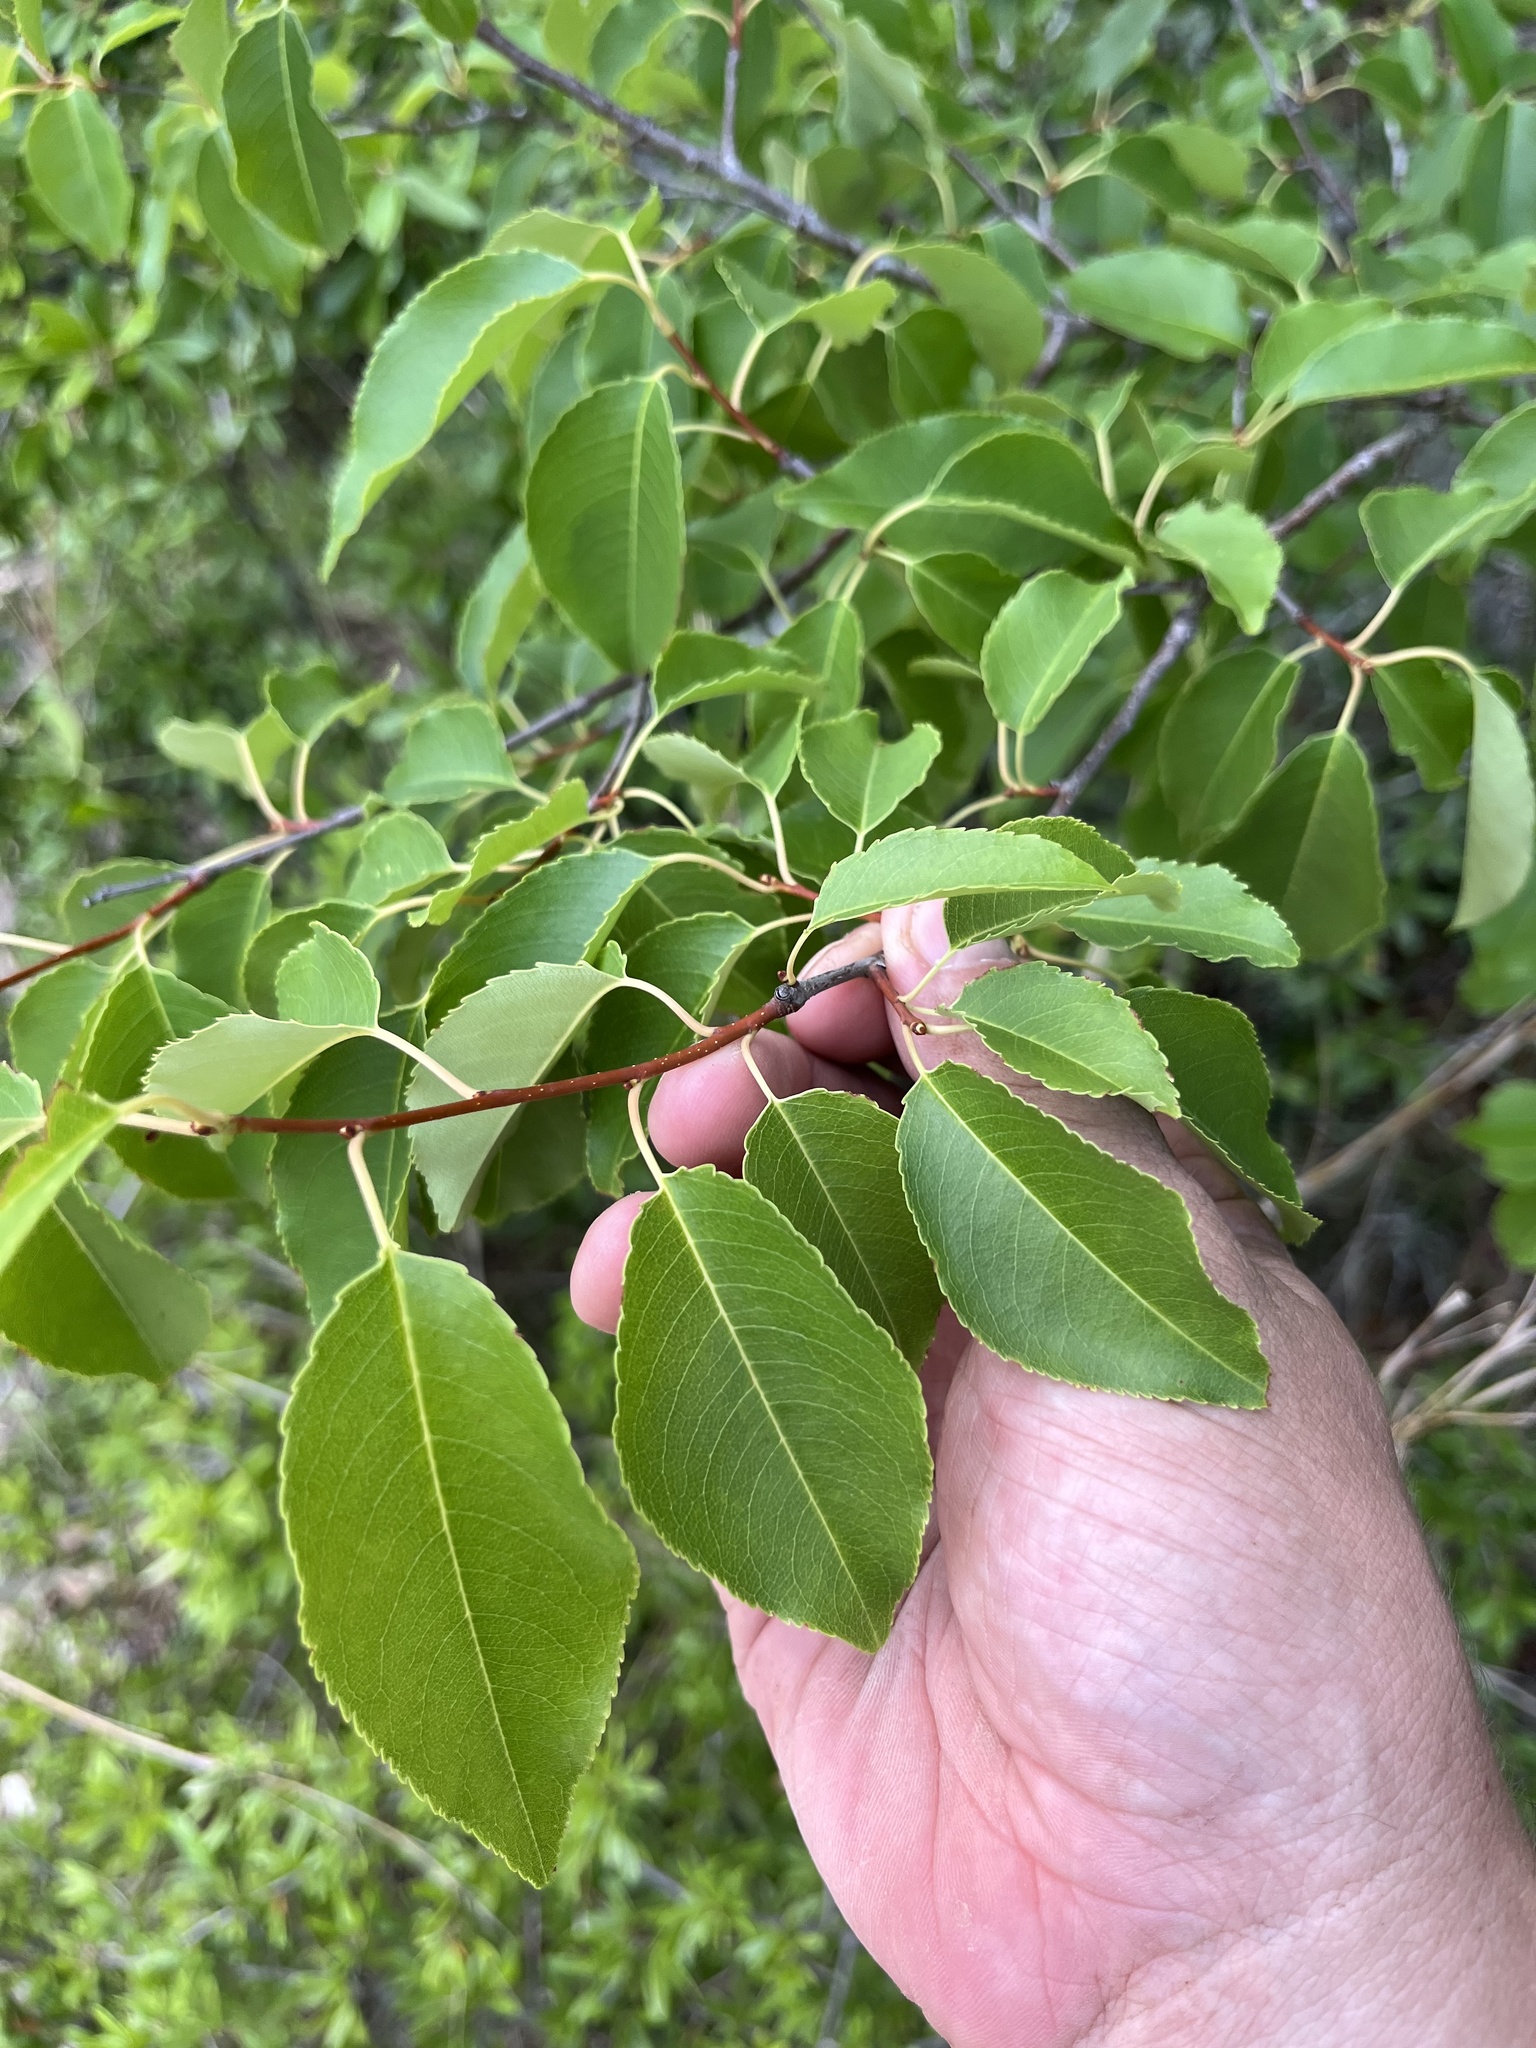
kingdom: Plantae
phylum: Tracheophyta
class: Magnoliopsida
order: Rosales
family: Rosaceae
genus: Prunus
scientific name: Prunus serotina
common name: Black cherry
